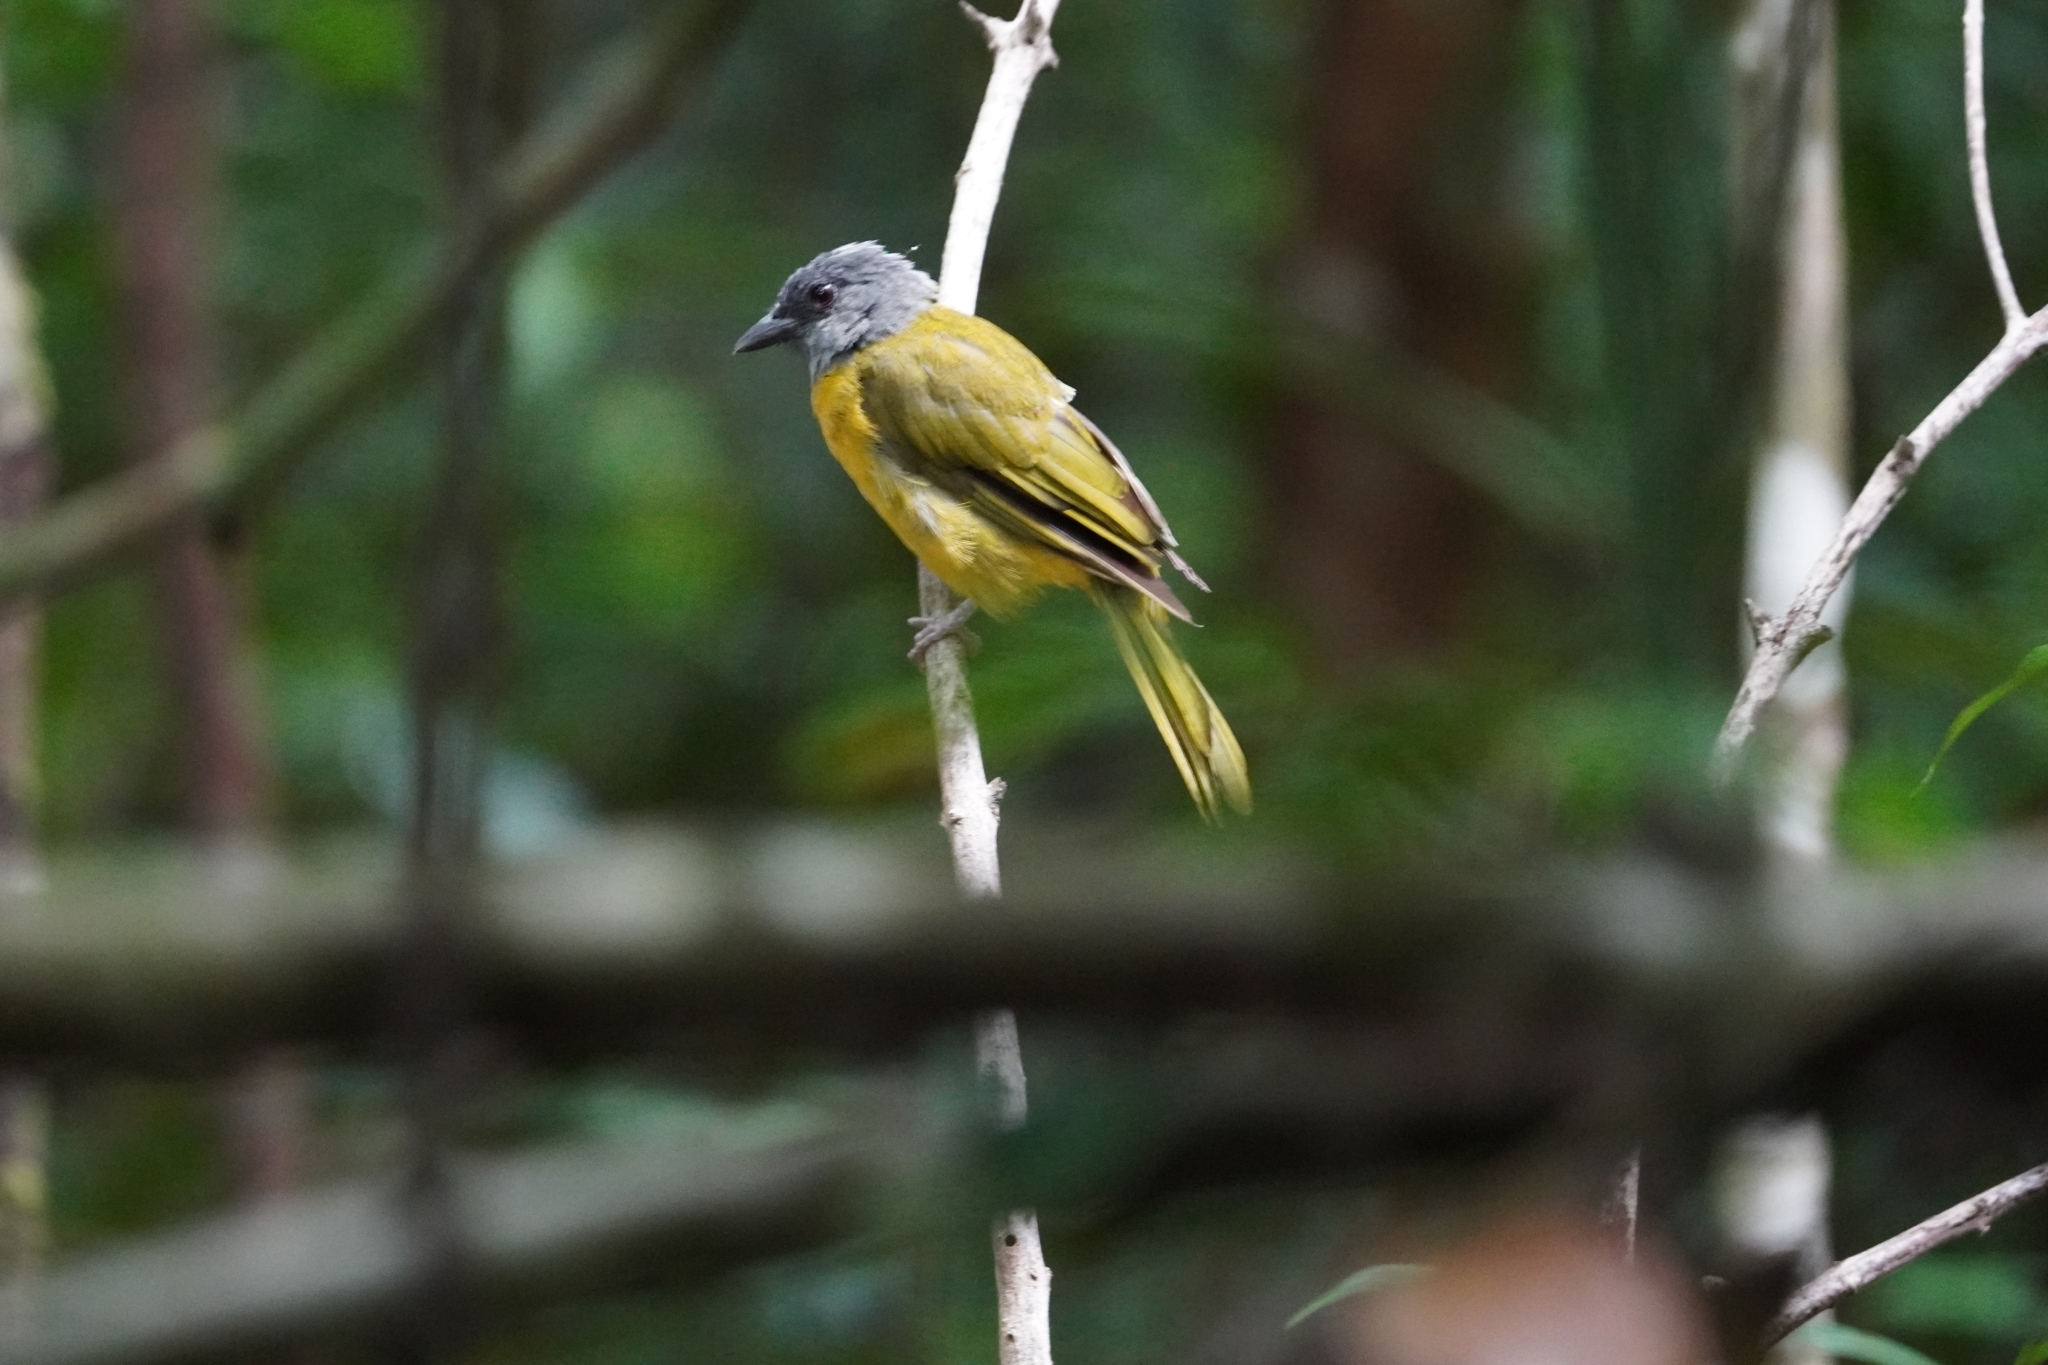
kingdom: Animalia
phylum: Chordata
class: Aves
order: Passeriformes
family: Thraupidae
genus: Eucometis
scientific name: Eucometis penicillata
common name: Grey-headed tanager
